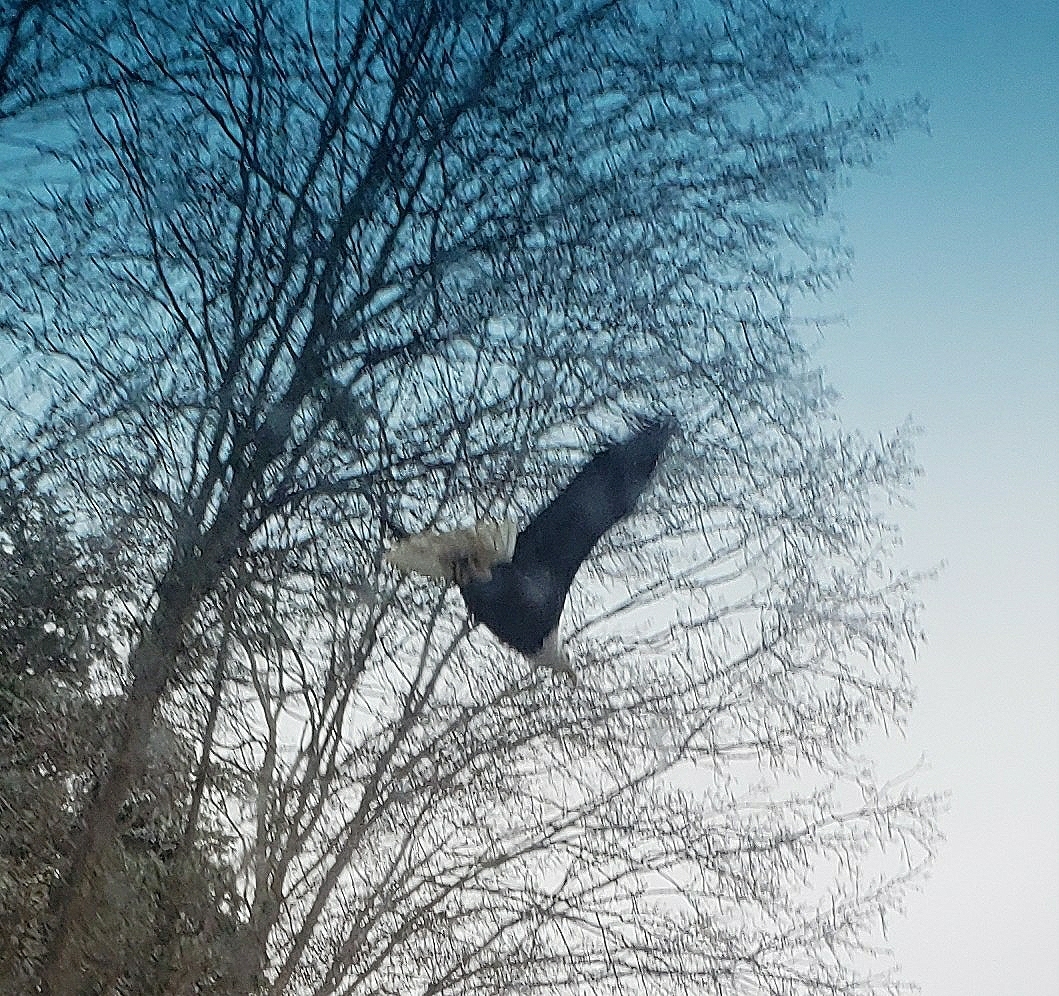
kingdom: Animalia
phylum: Chordata
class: Aves
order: Accipitriformes
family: Accipitridae
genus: Haliaeetus
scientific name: Haliaeetus leucocephalus
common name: Bald eagle
